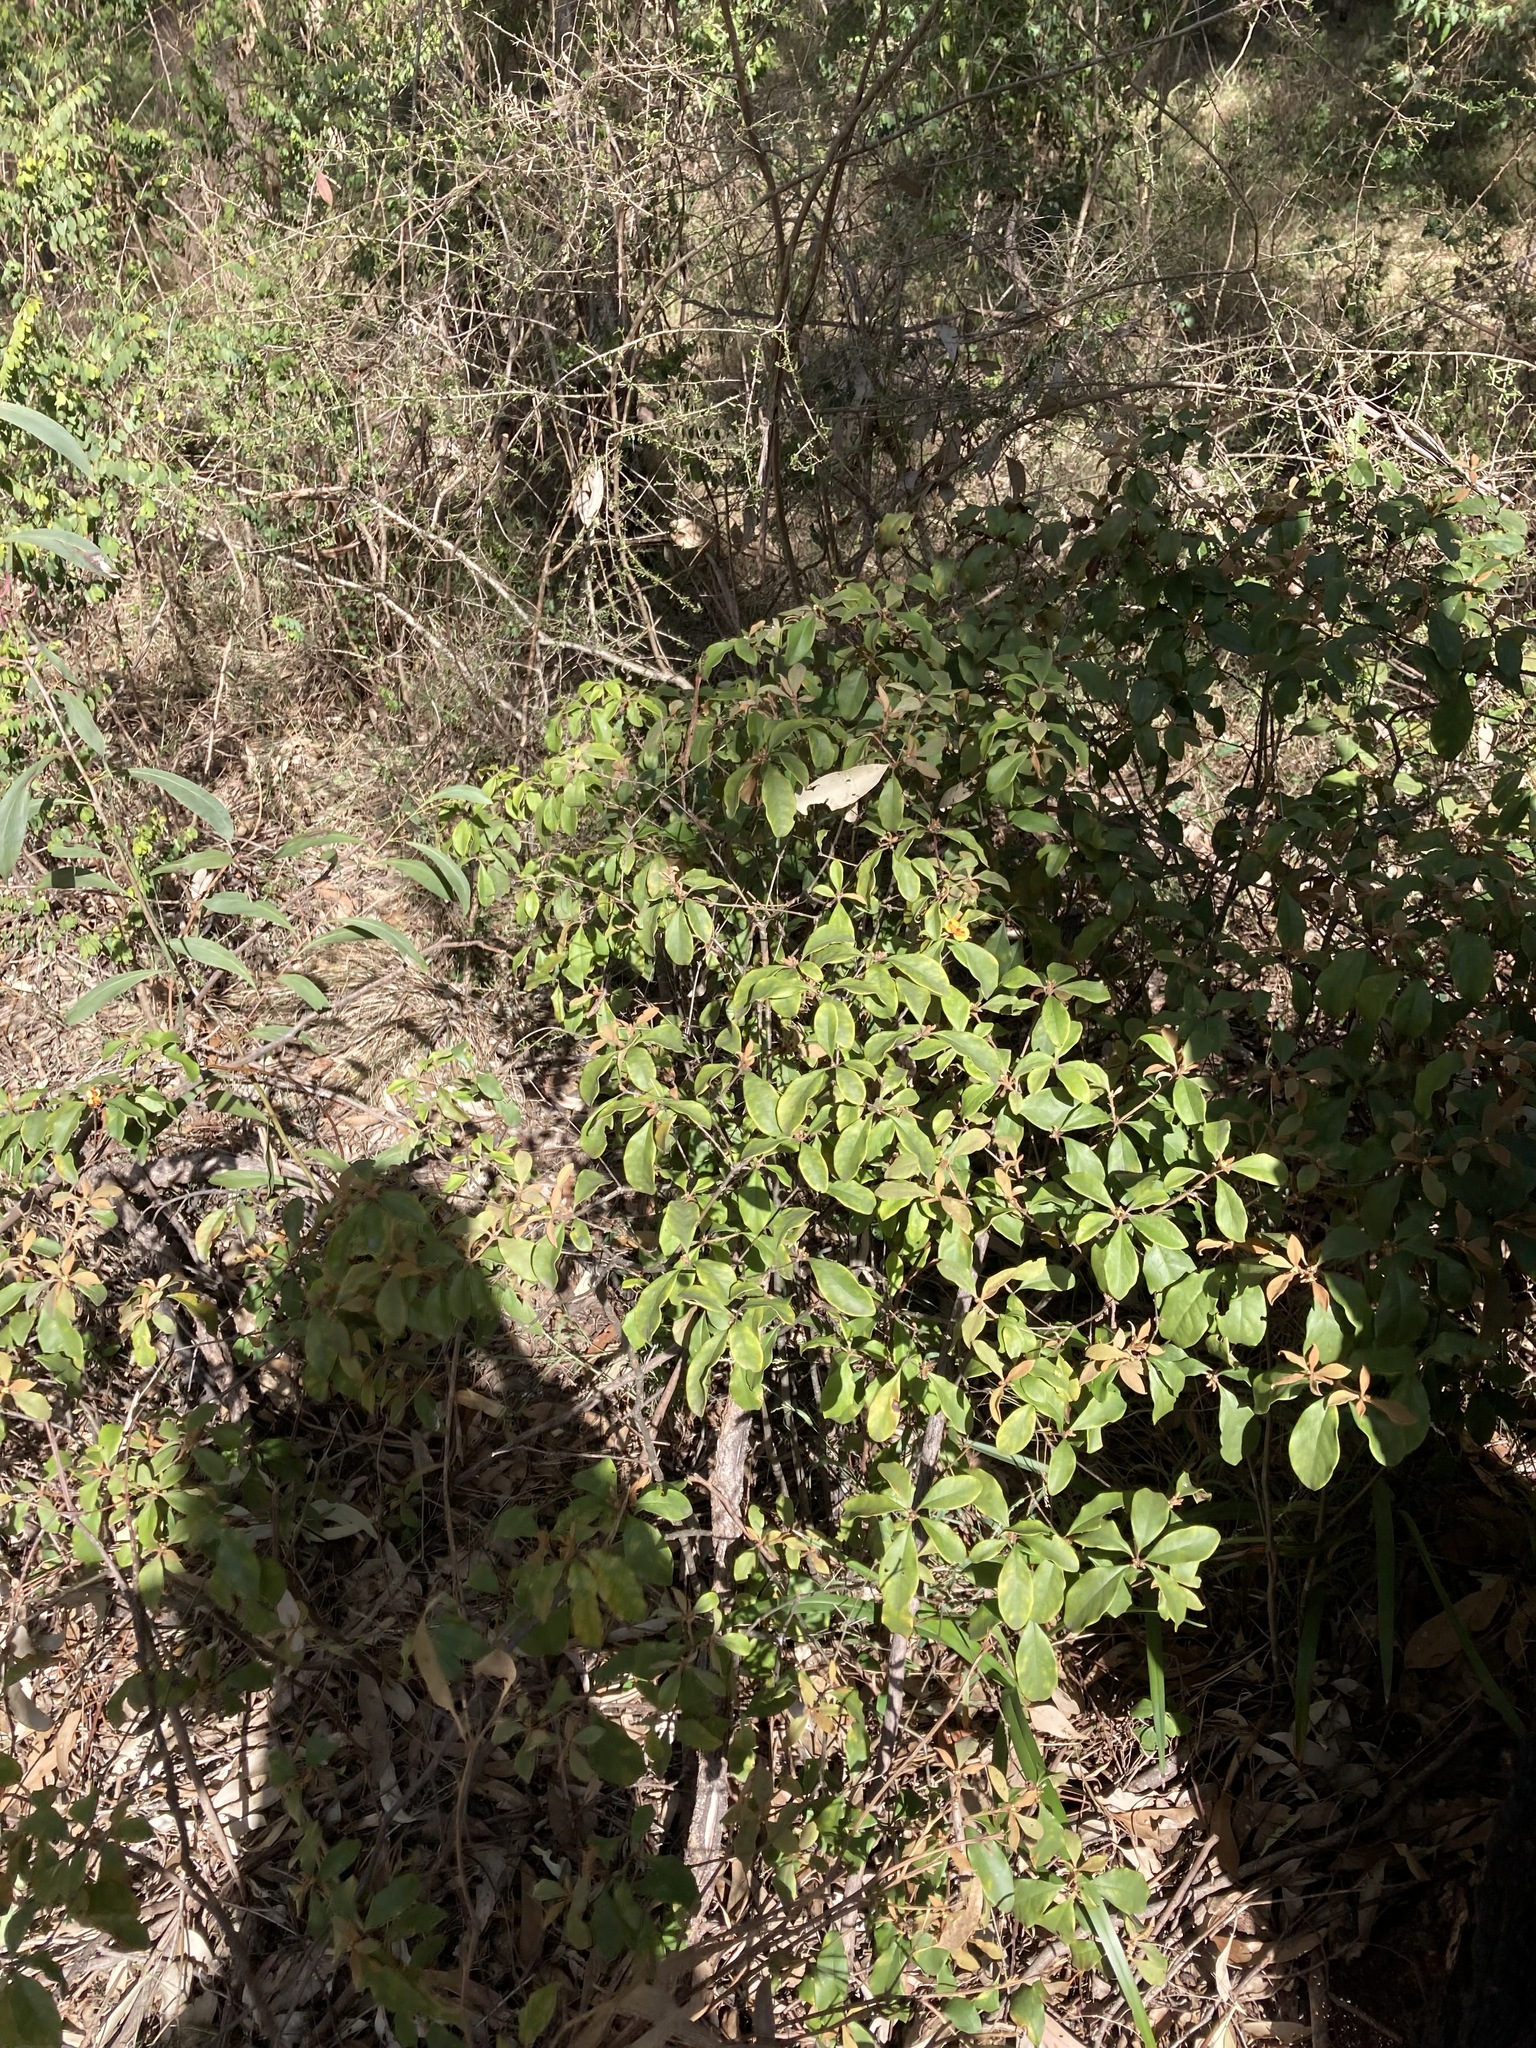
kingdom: Plantae
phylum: Tracheophyta
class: Magnoliopsida
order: Apiales
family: Pittosporaceae
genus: Pittosporum
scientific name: Pittosporum revolutum
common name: Brisbane-laurel
